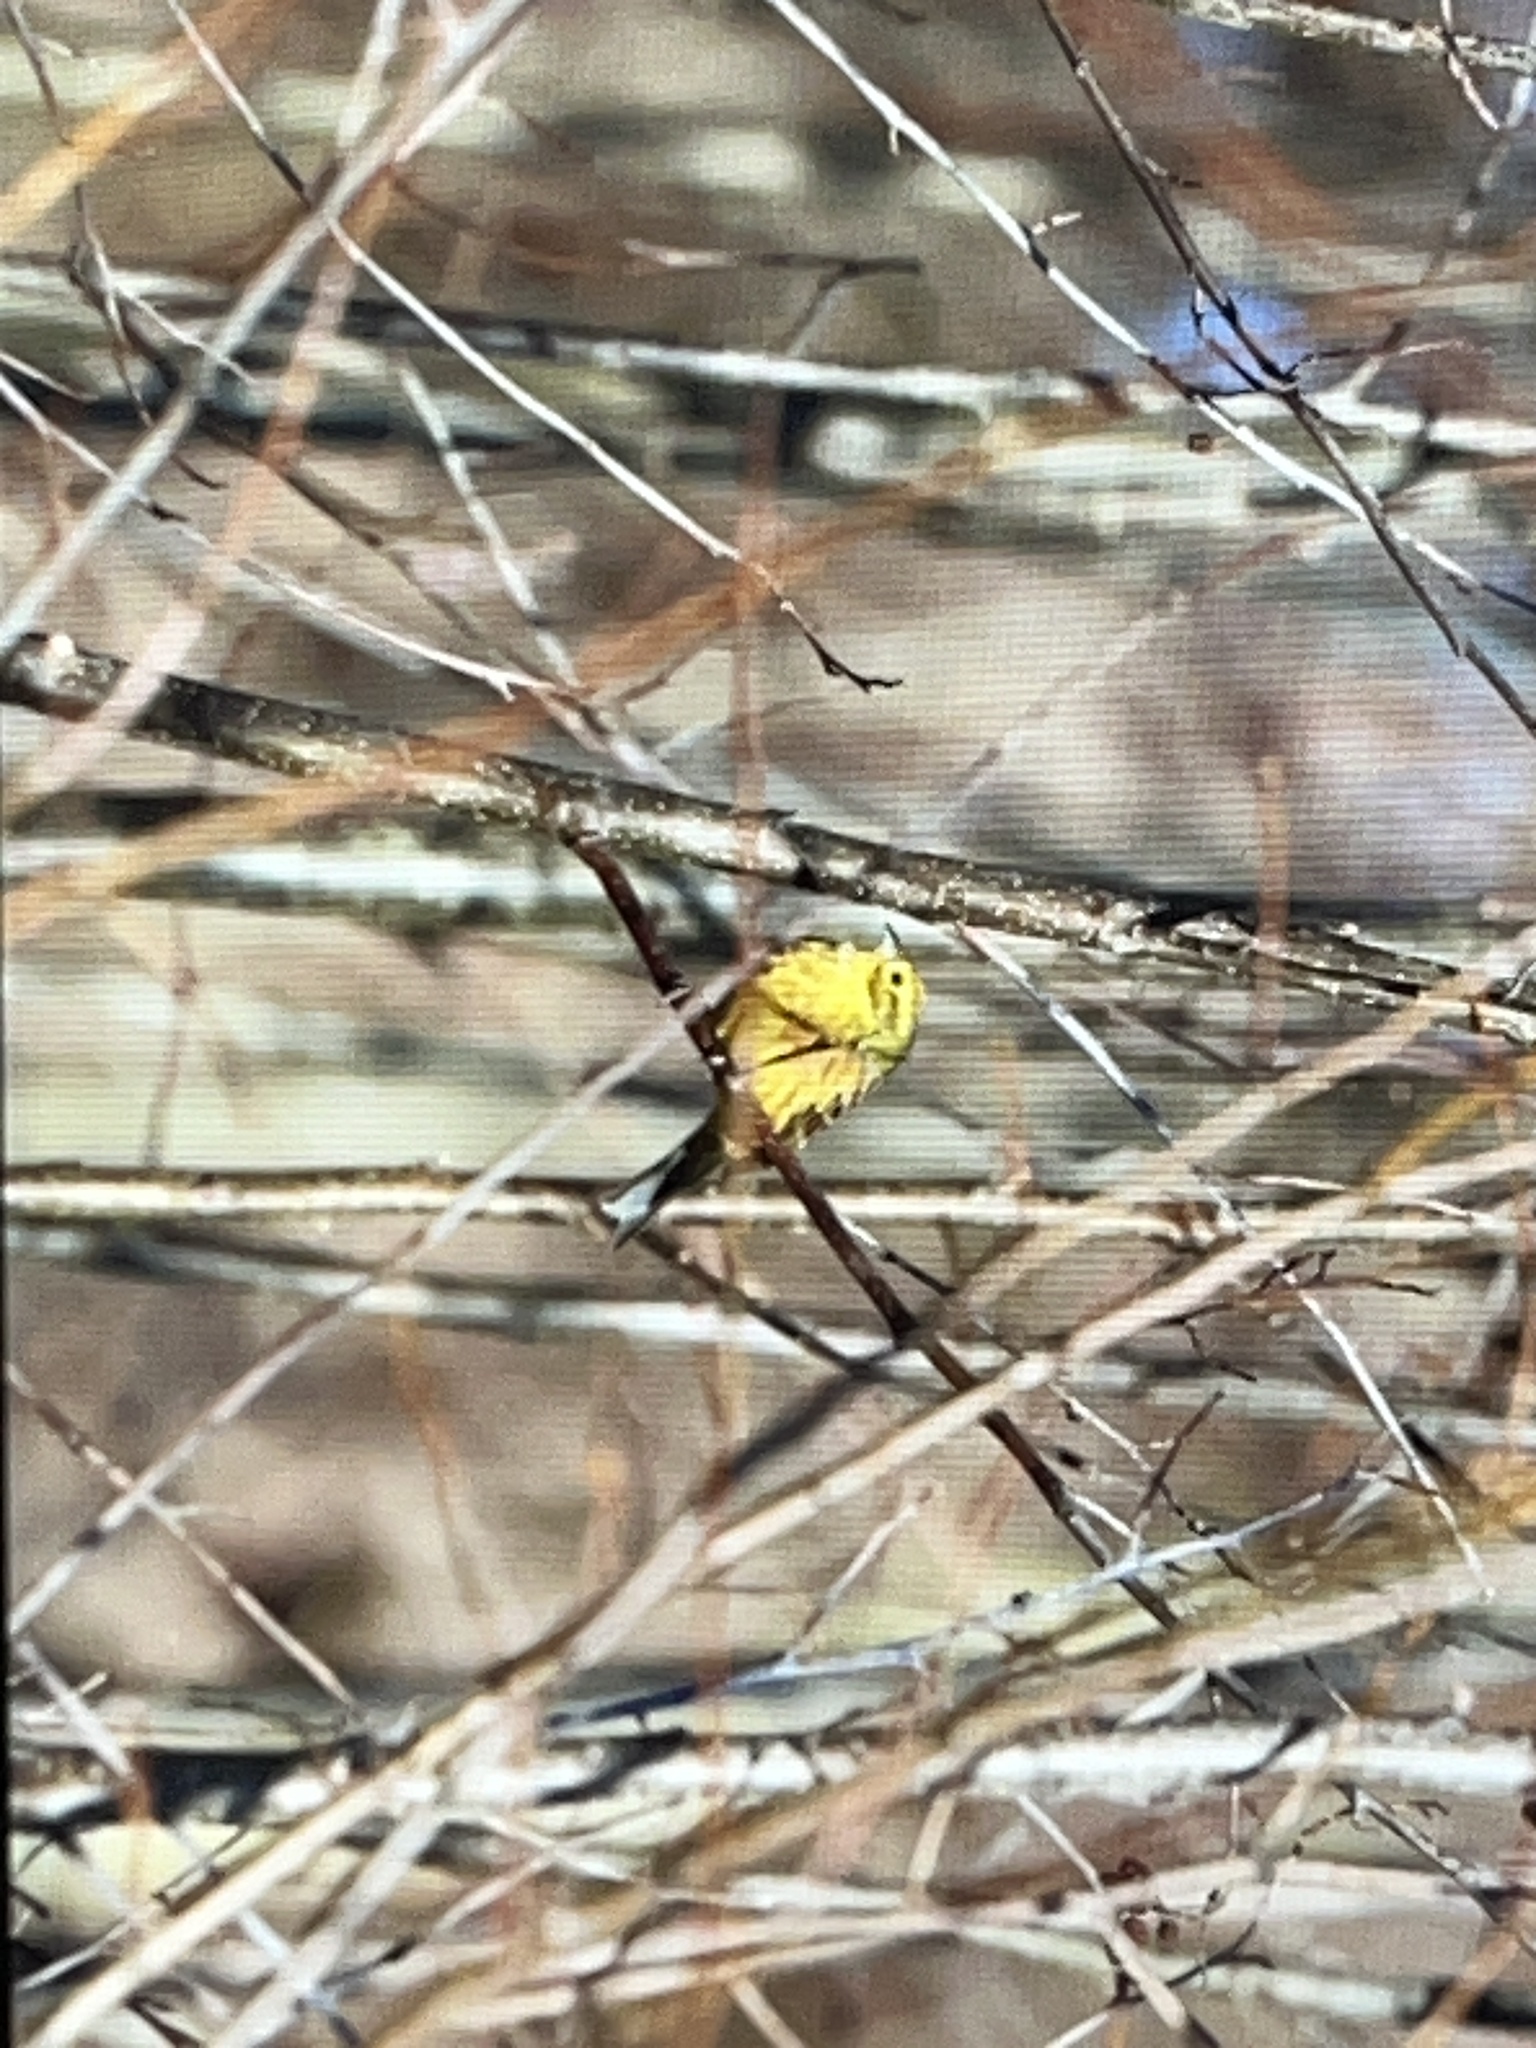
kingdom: Animalia
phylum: Chordata
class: Aves
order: Passeriformes
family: Emberizidae
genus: Emberiza
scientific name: Emberiza citrinella
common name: Yellowhammer
